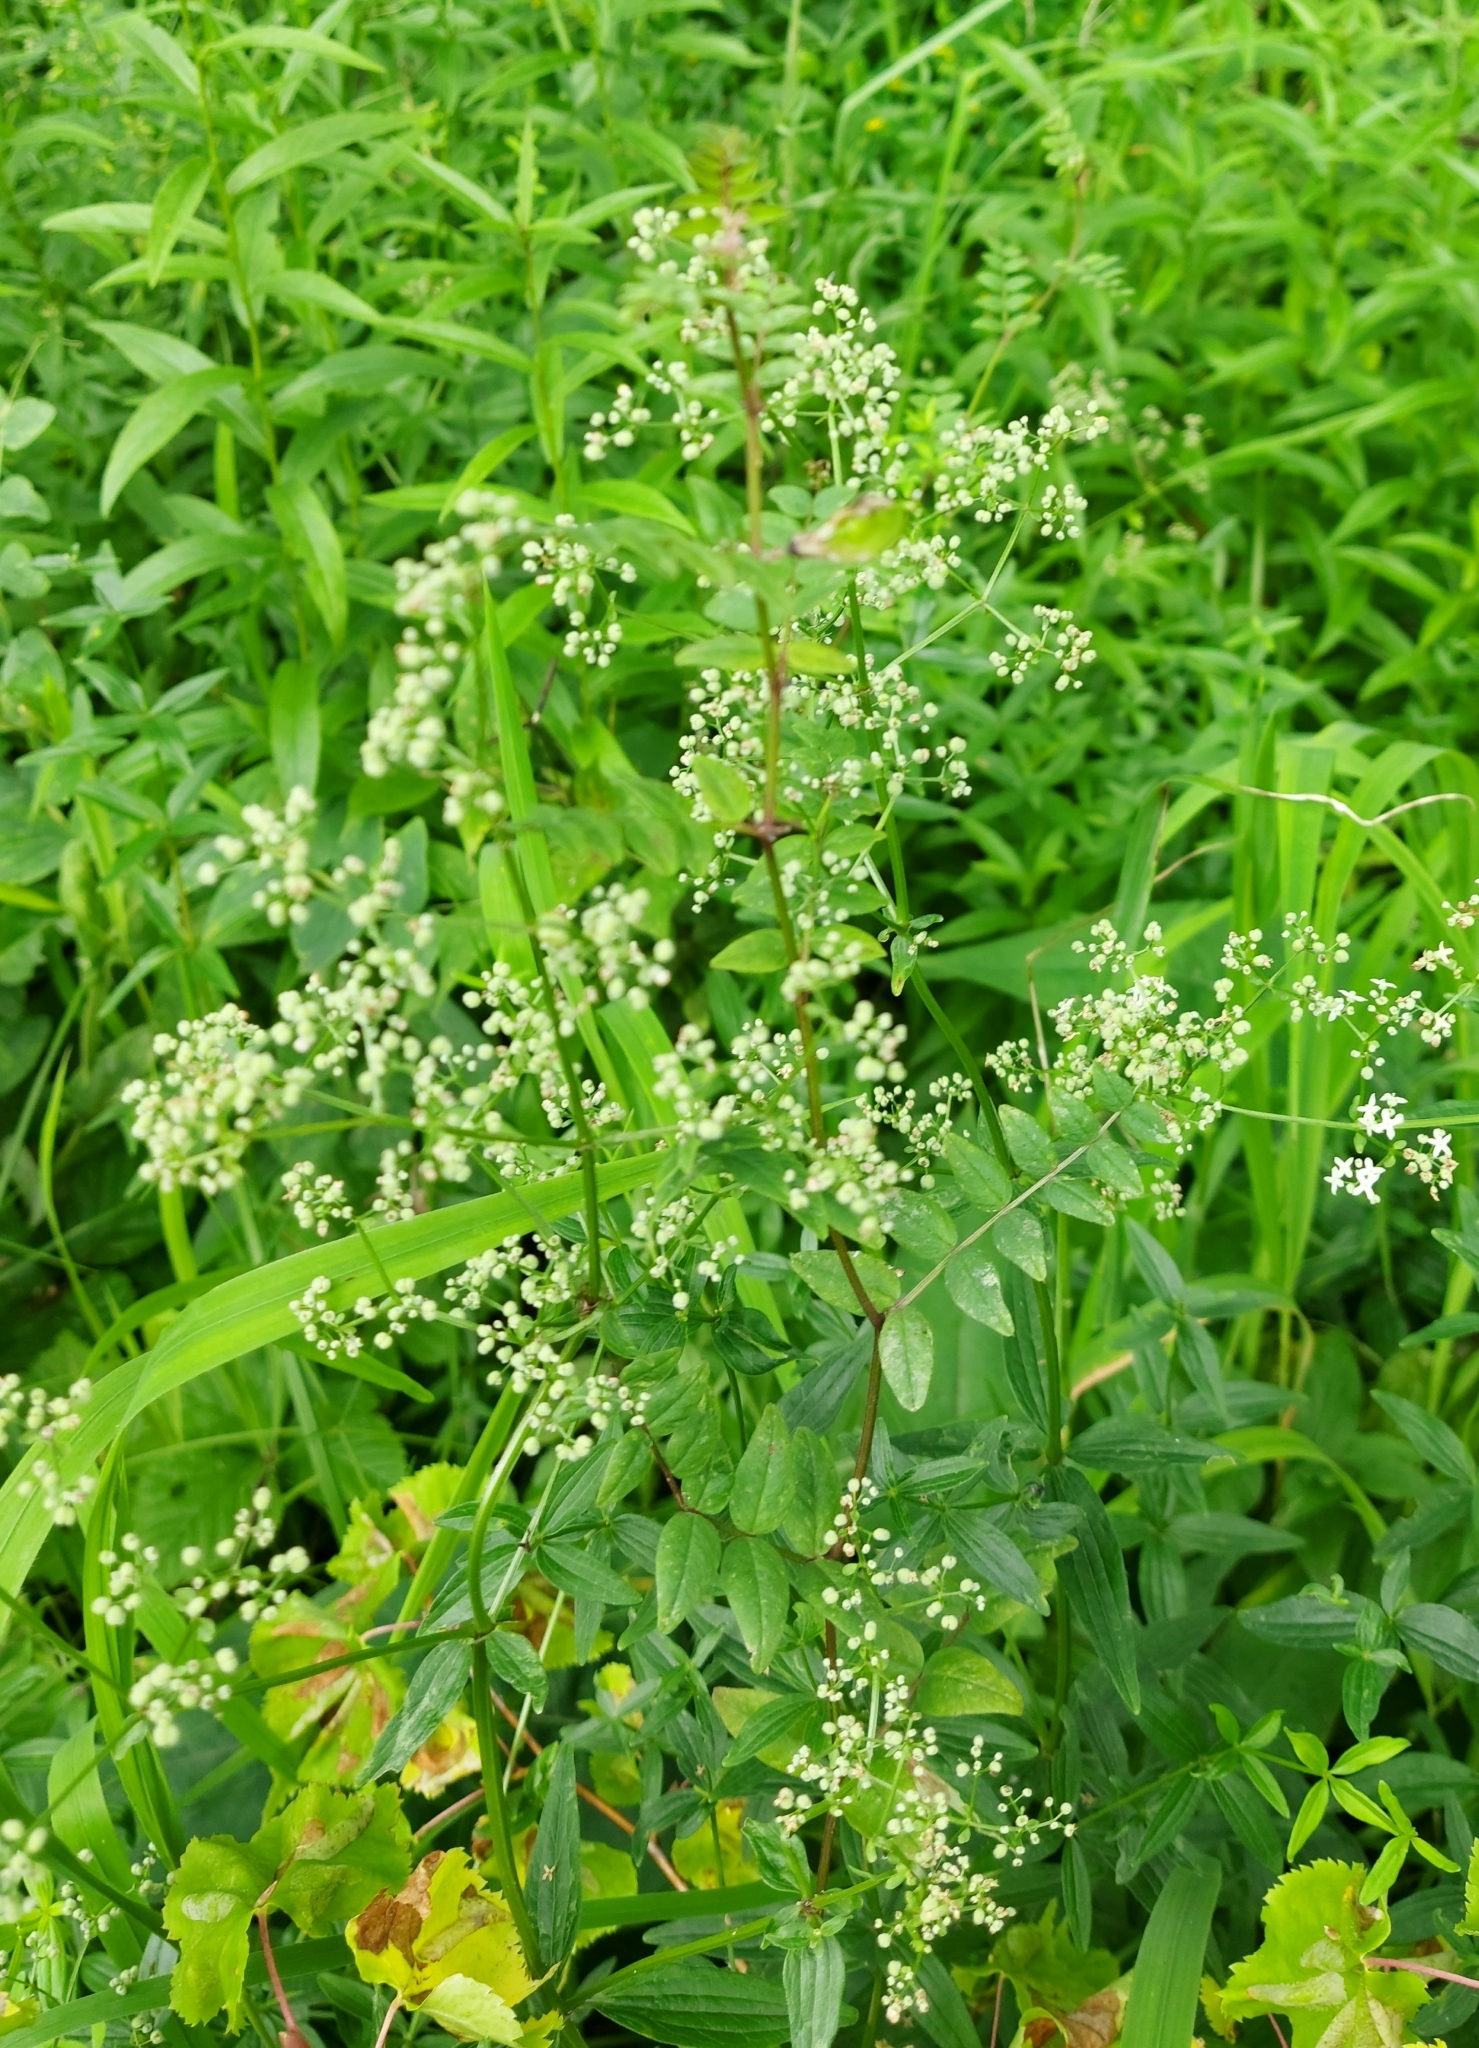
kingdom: Plantae
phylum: Tracheophyta
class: Magnoliopsida
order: Gentianales
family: Rubiaceae
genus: Galium
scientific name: Galium boreale
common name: Northern bedstraw
